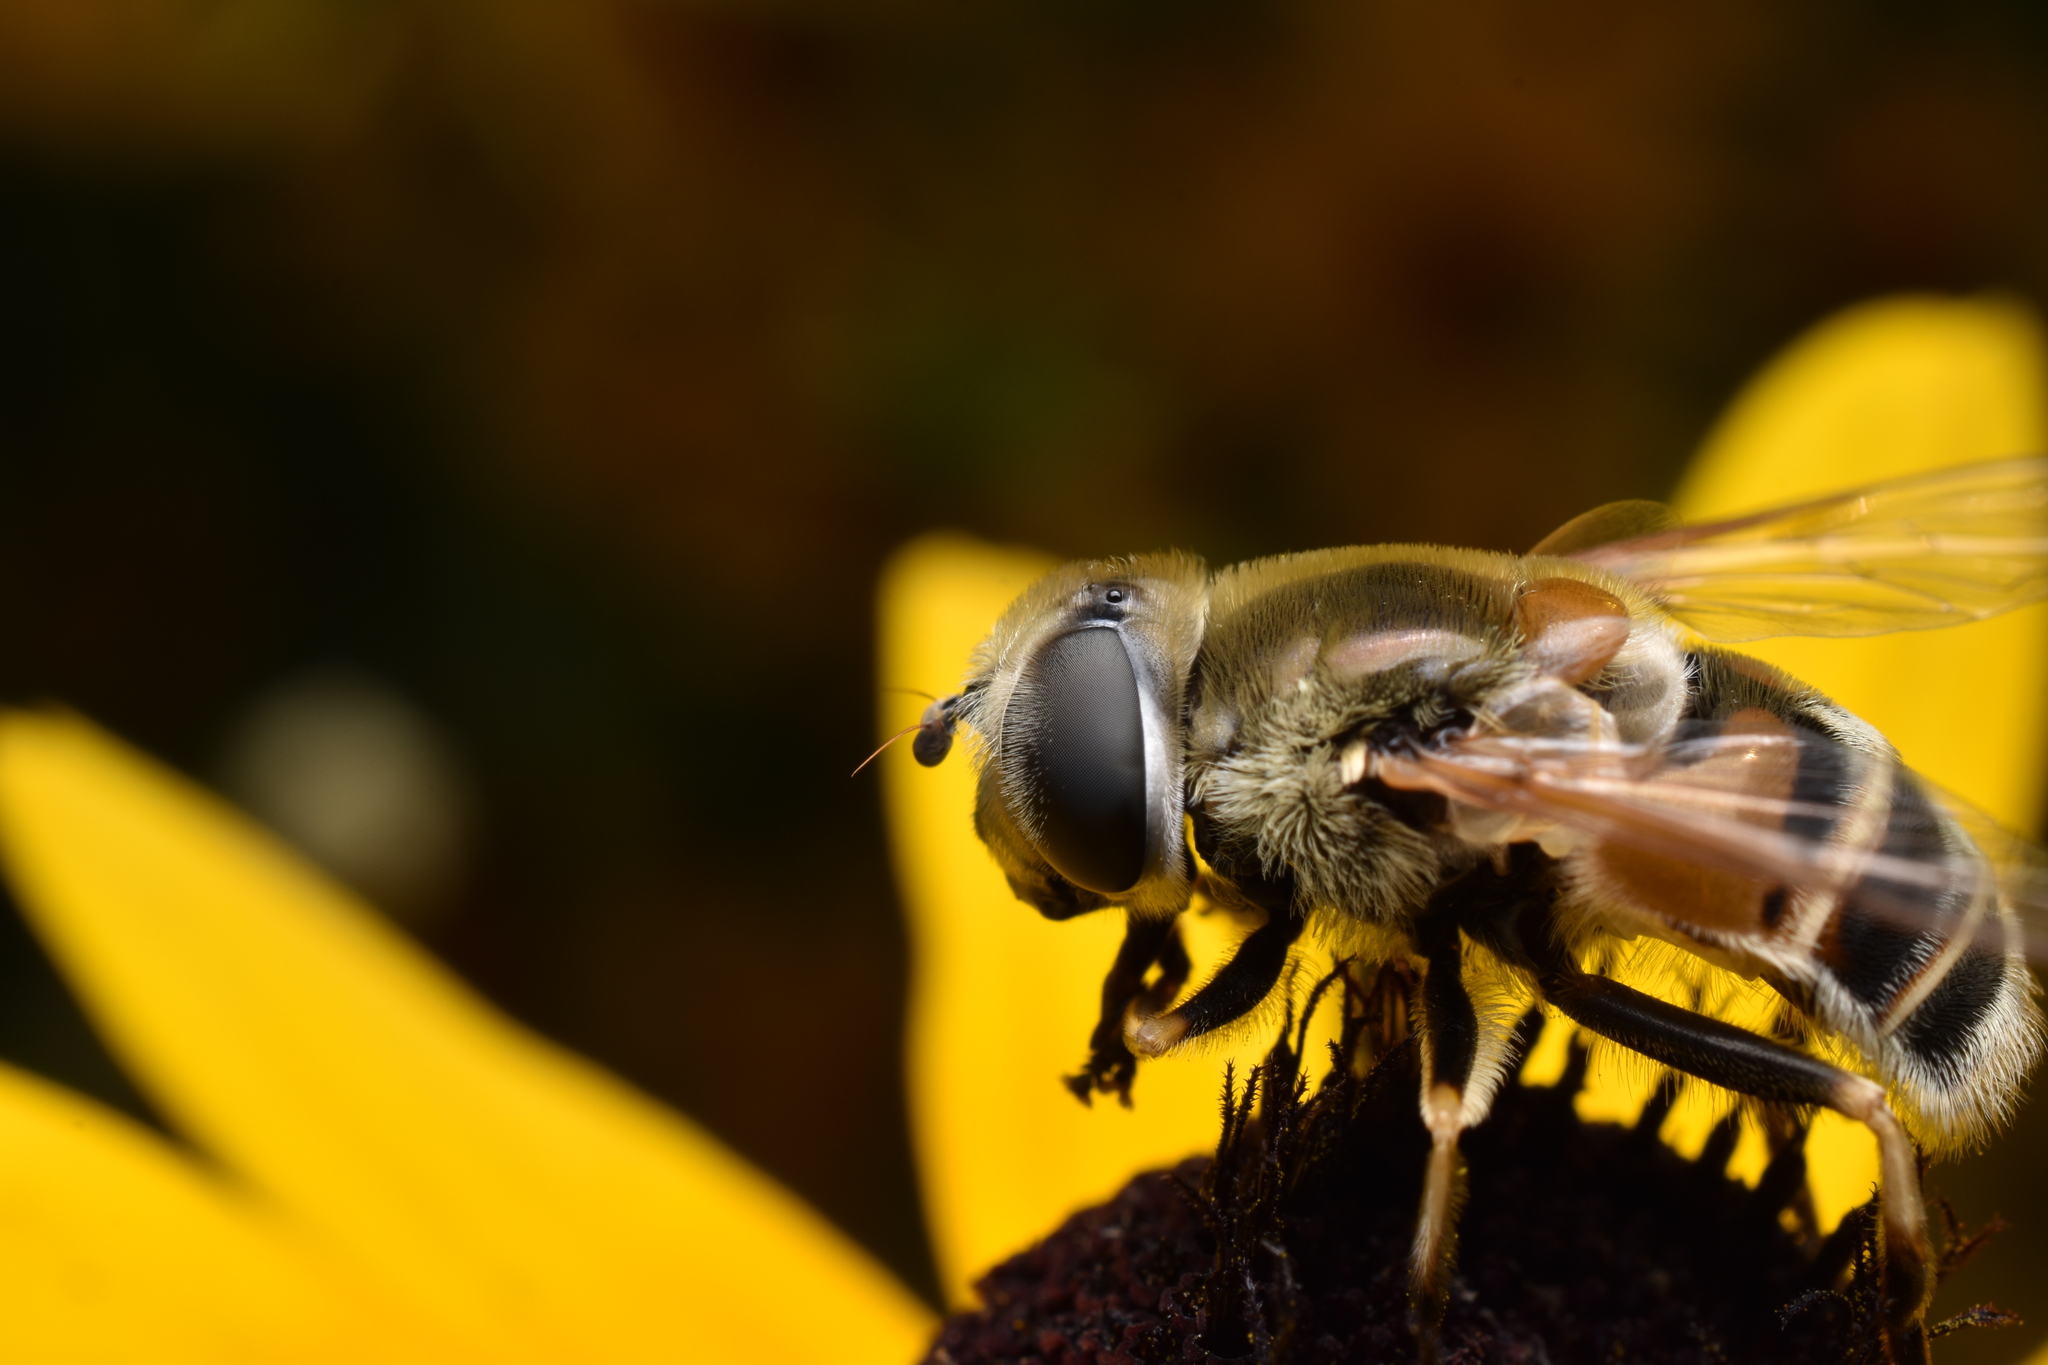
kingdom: Animalia
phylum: Arthropoda
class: Insecta
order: Diptera
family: Syrphidae
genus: Eristalis
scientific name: Eristalis stipator
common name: Yellow-shouldered drone fly
